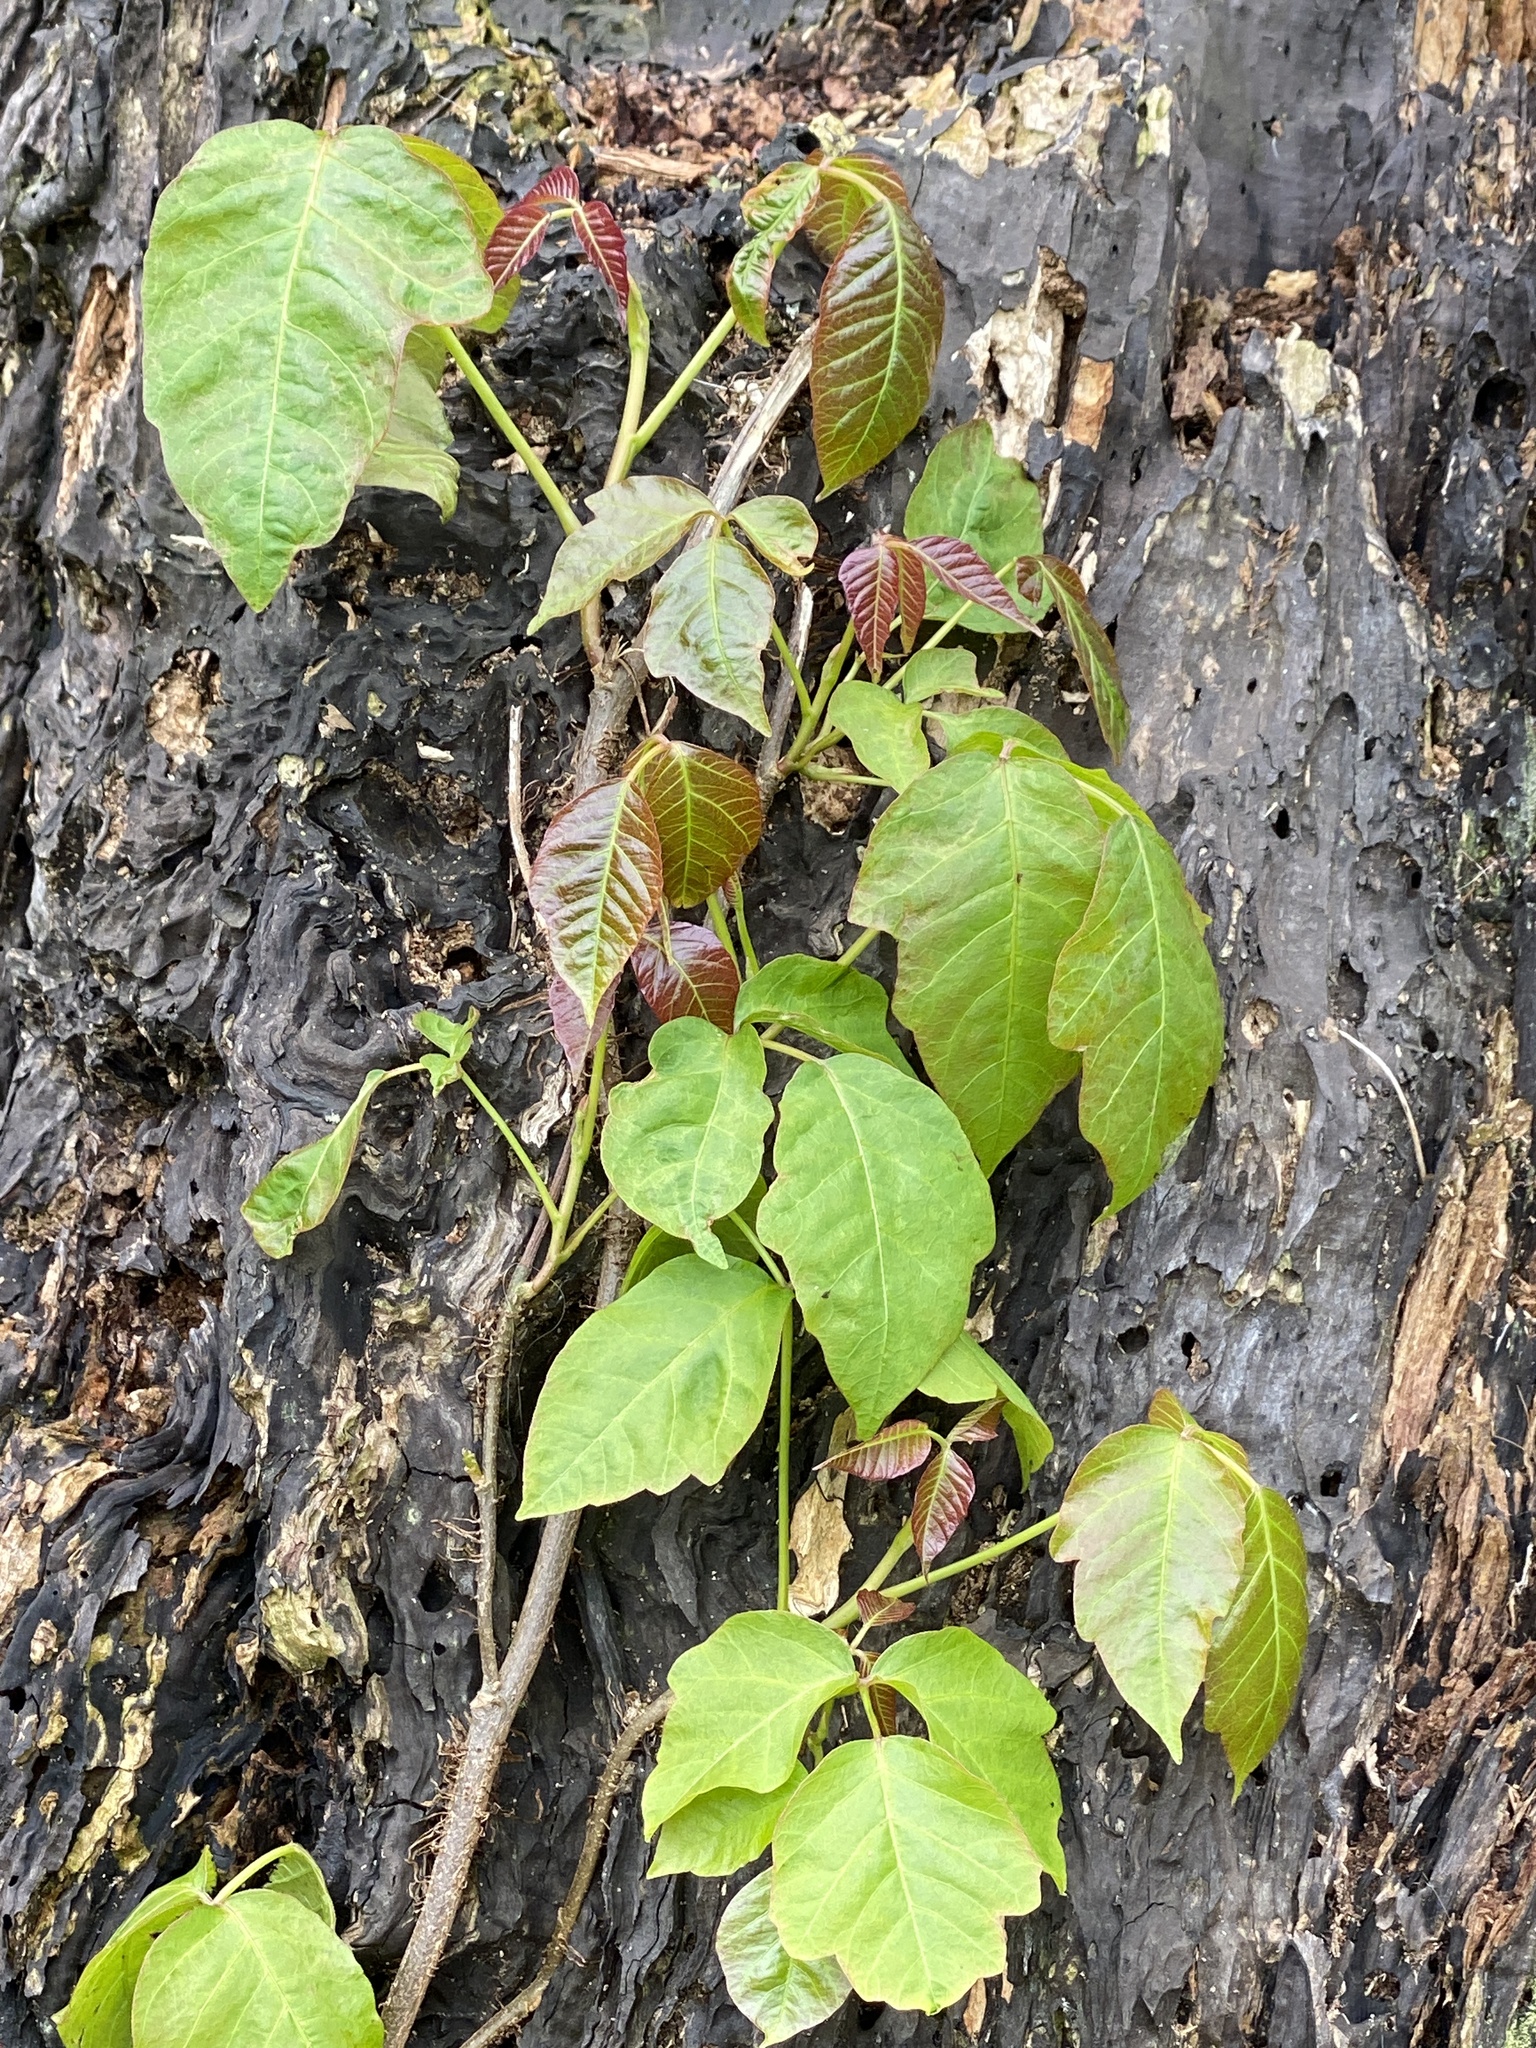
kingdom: Plantae
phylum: Tracheophyta
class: Magnoliopsida
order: Sapindales
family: Anacardiaceae
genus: Toxicodendron
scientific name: Toxicodendron radicans
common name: Poison ivy
